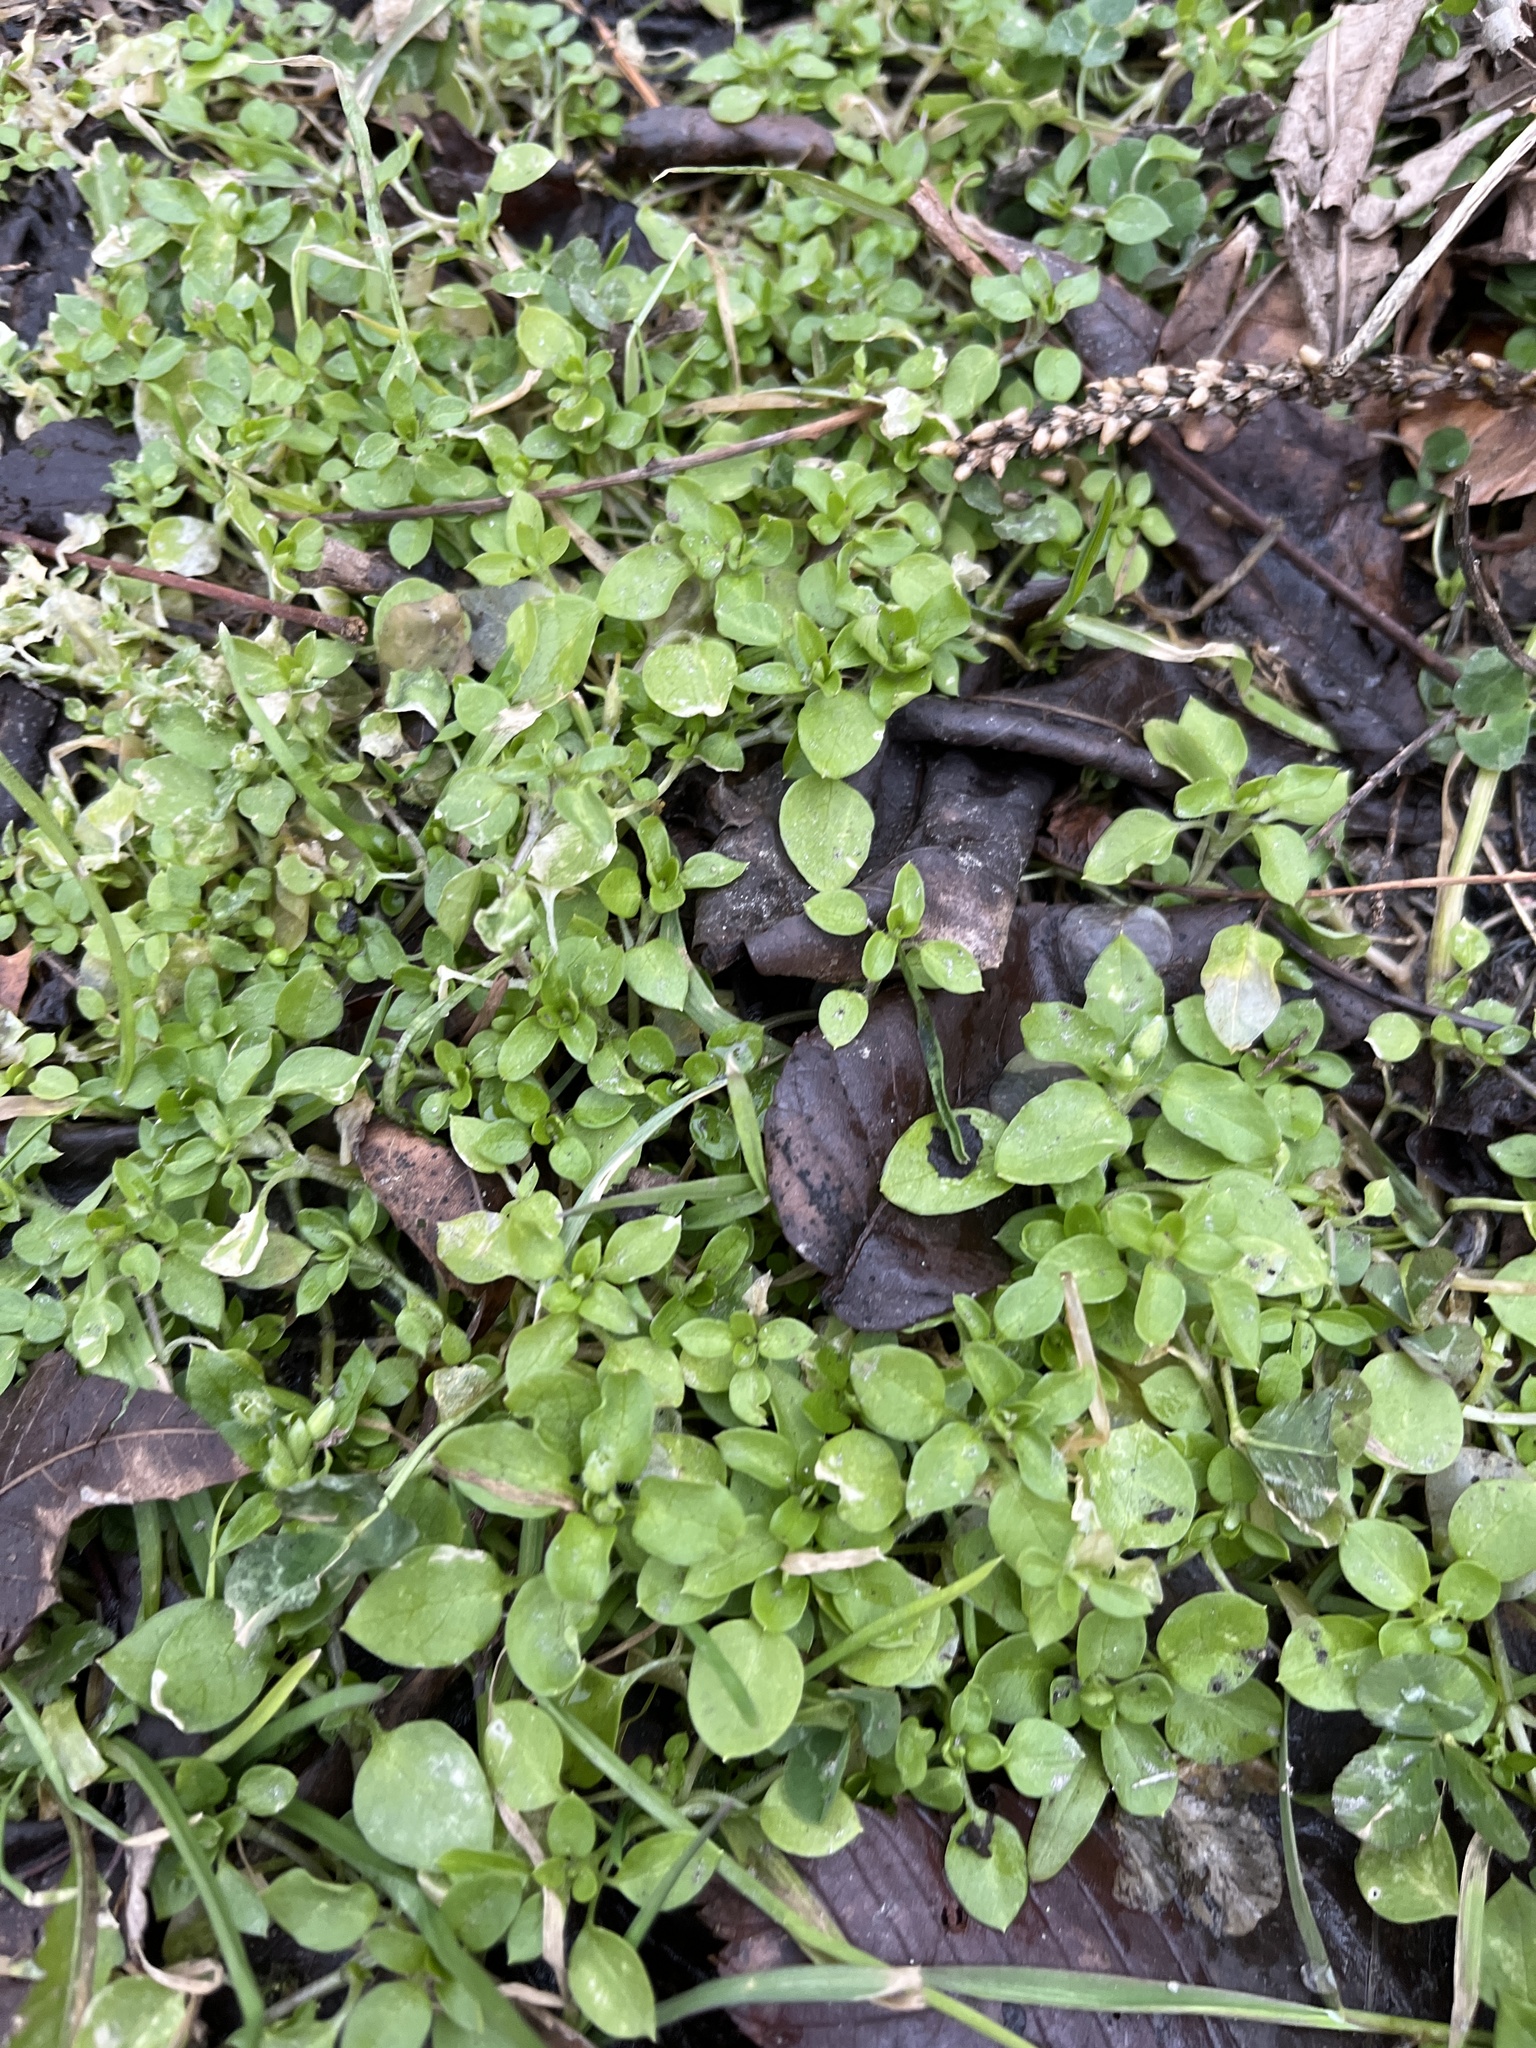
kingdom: Plantae
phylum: Tracheophyta
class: Magnoliopsida
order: Caryophyllales
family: Caryophyllaceae
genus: Stellaria
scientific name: Stellaria media
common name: Common chickweed
